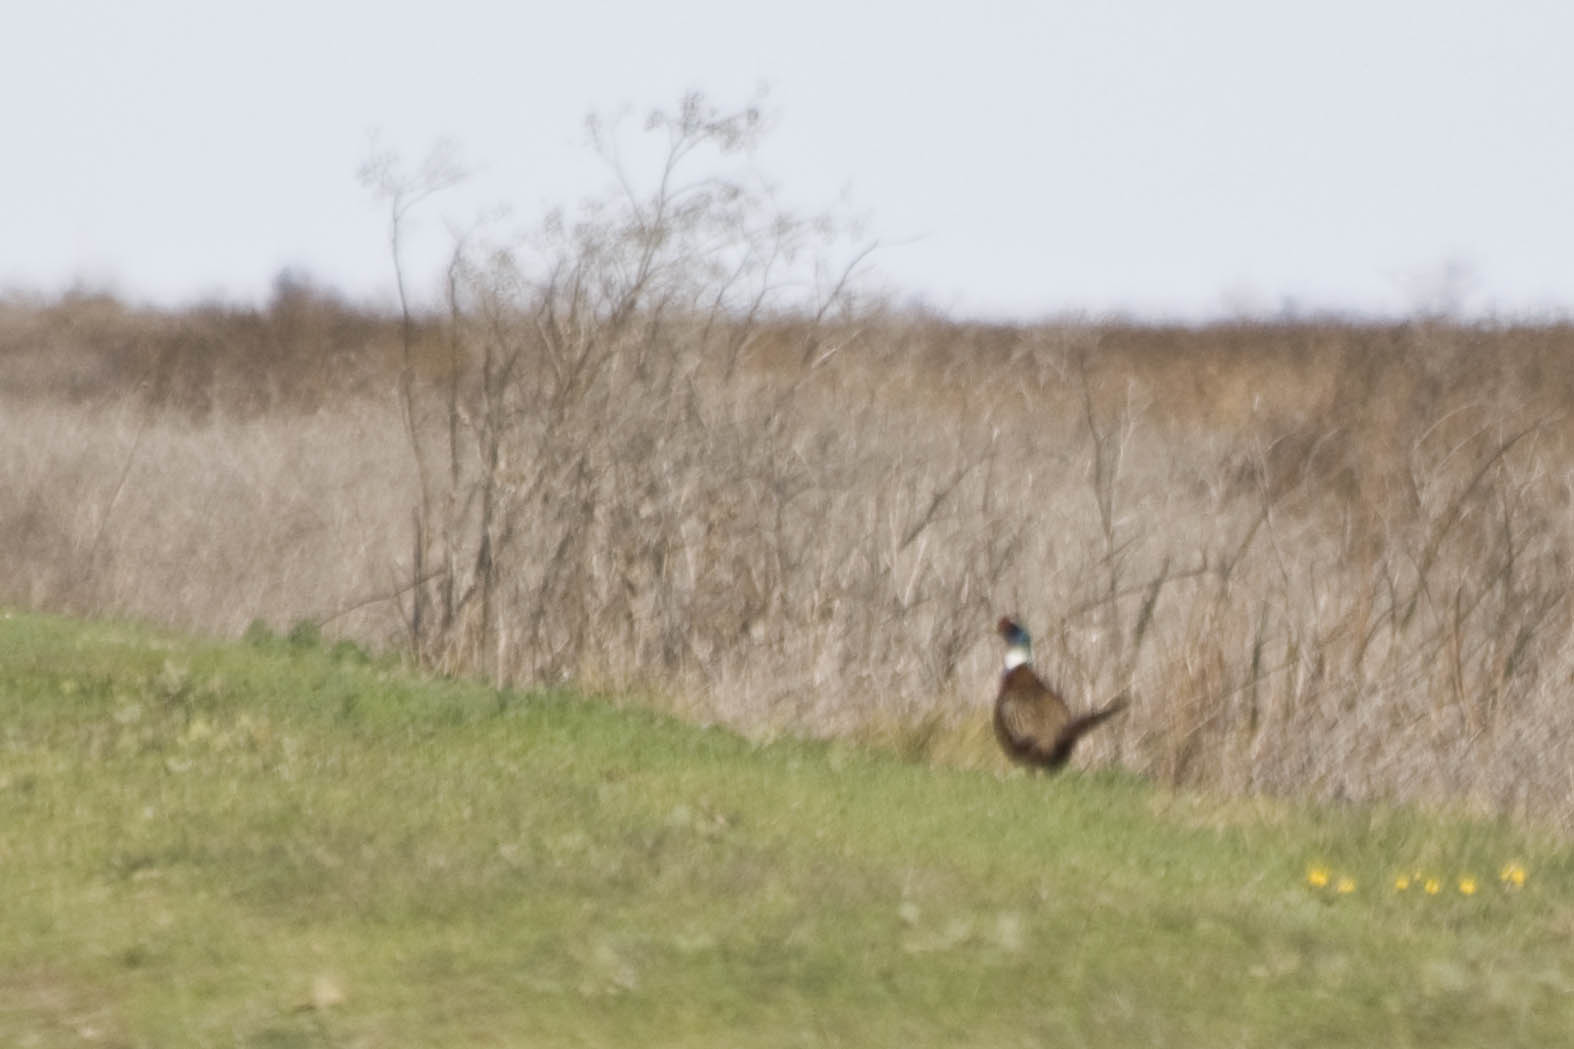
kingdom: Animalia
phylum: Chordata
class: Aves
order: Galliformes
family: Phasianidae
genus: Phasianus
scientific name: Phasianus colchicus
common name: Common pheasant
